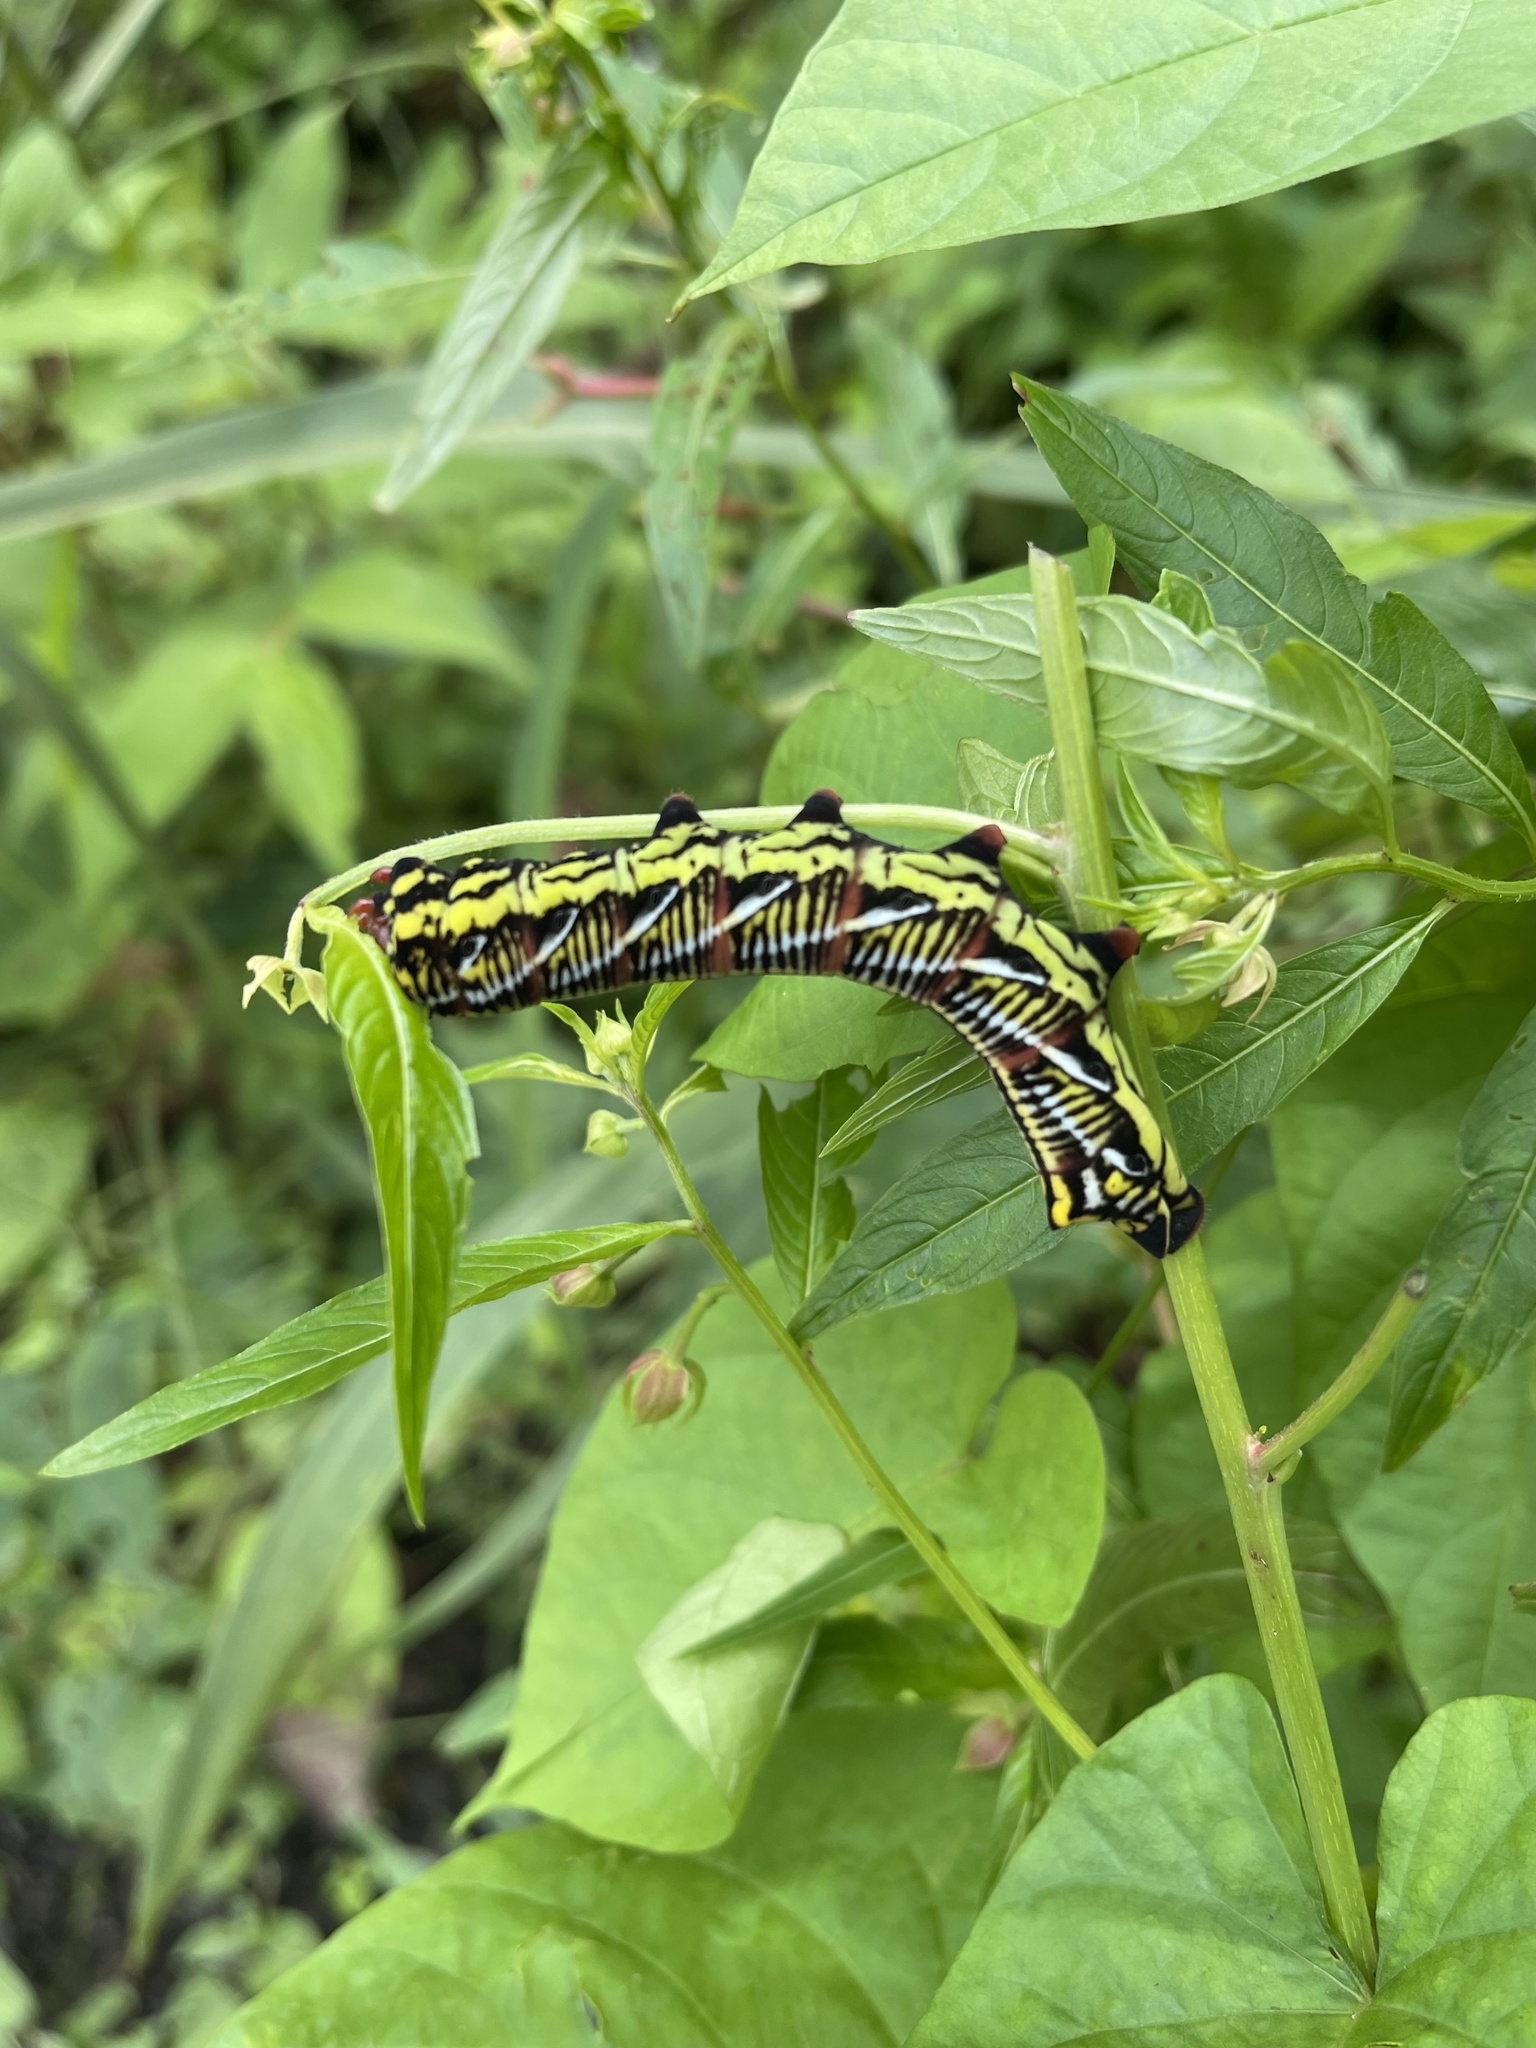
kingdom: Animalia
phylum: Arthropoda
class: Insecta
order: Lepidoptera
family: Sphingidae
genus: Eumorpha
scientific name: Eumorpha fasciatus
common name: Banded sphinx
